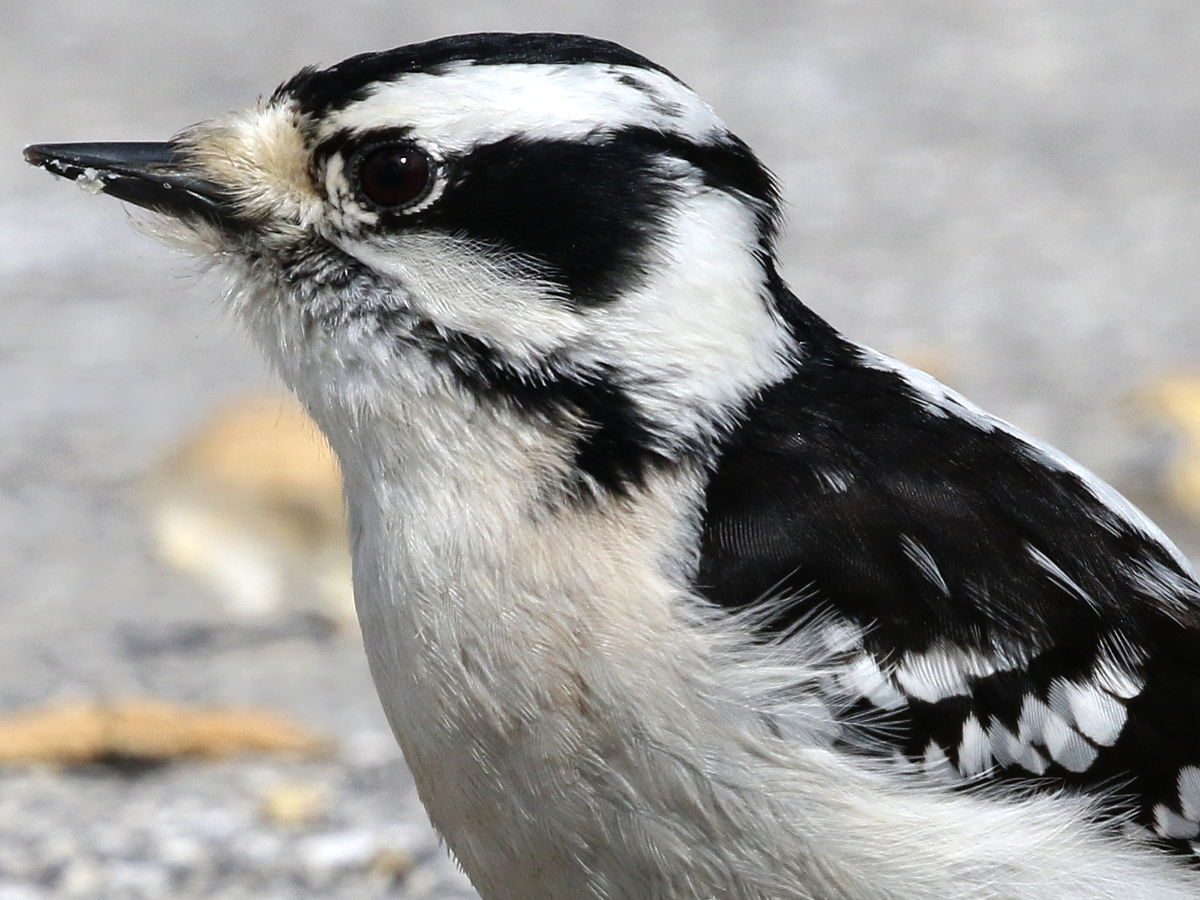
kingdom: Animalia
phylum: Chordata
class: Aves
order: Piciformes
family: Picidae
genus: Dryobates
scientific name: Dryobates pubescens
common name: Downy woodpecker
